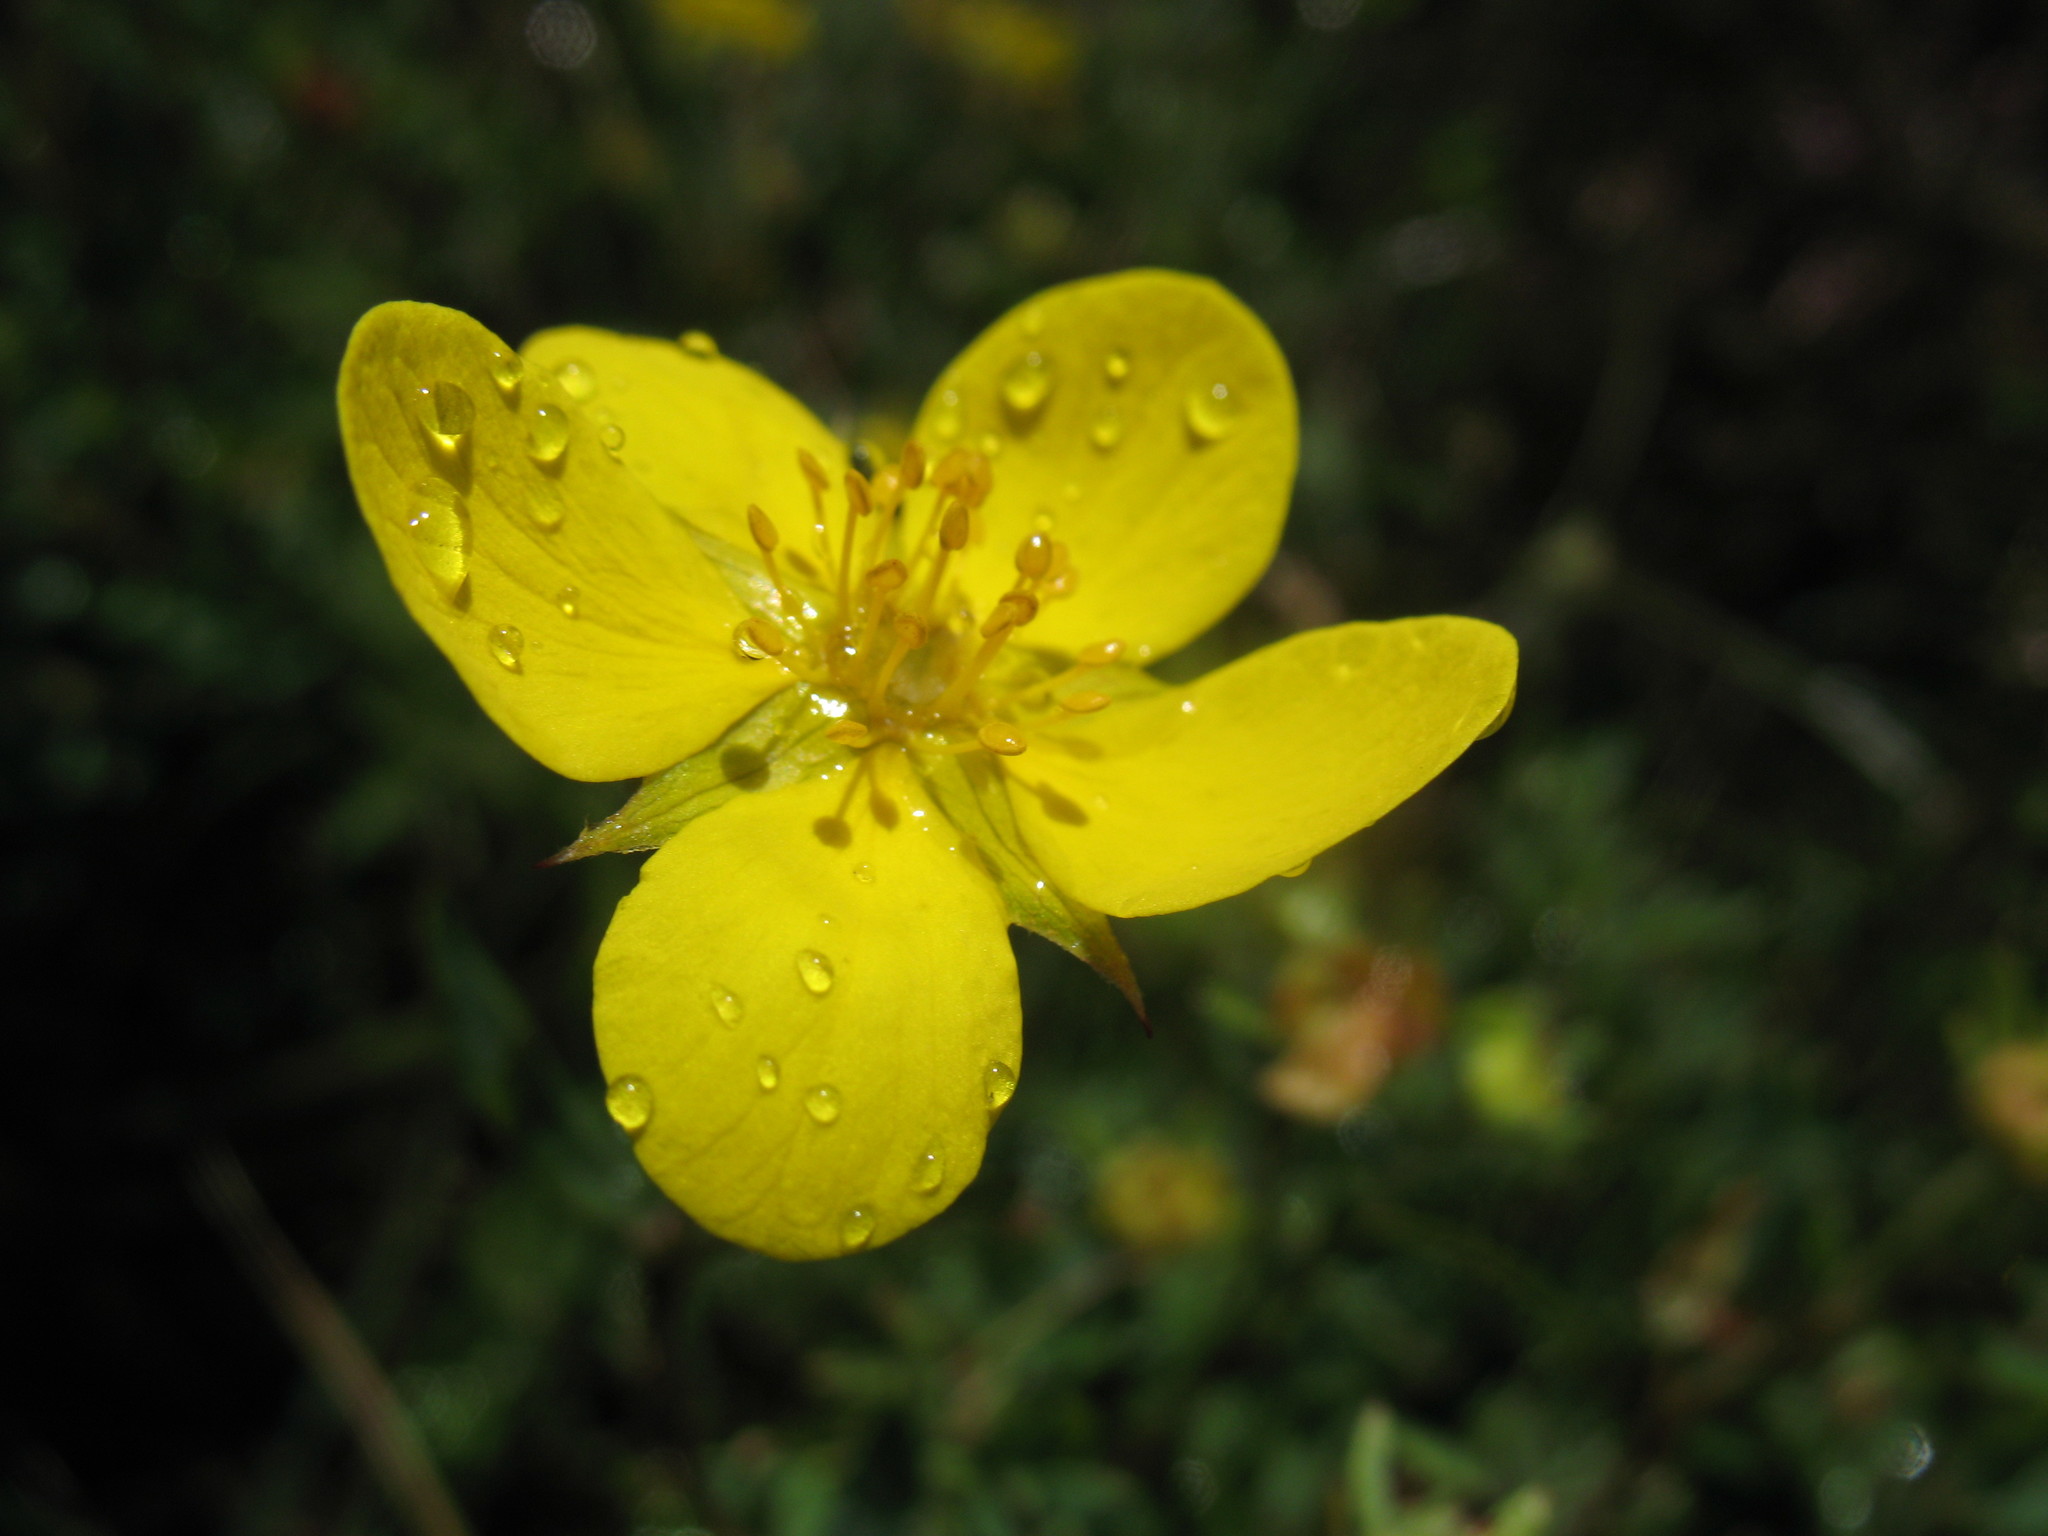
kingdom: Plantae
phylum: Tracheophyta
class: Magnoliopsida
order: Rosales
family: Rosaceae
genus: Dasiphora
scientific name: Dasiphora fruticosa
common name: Shrubby cinquefoil
